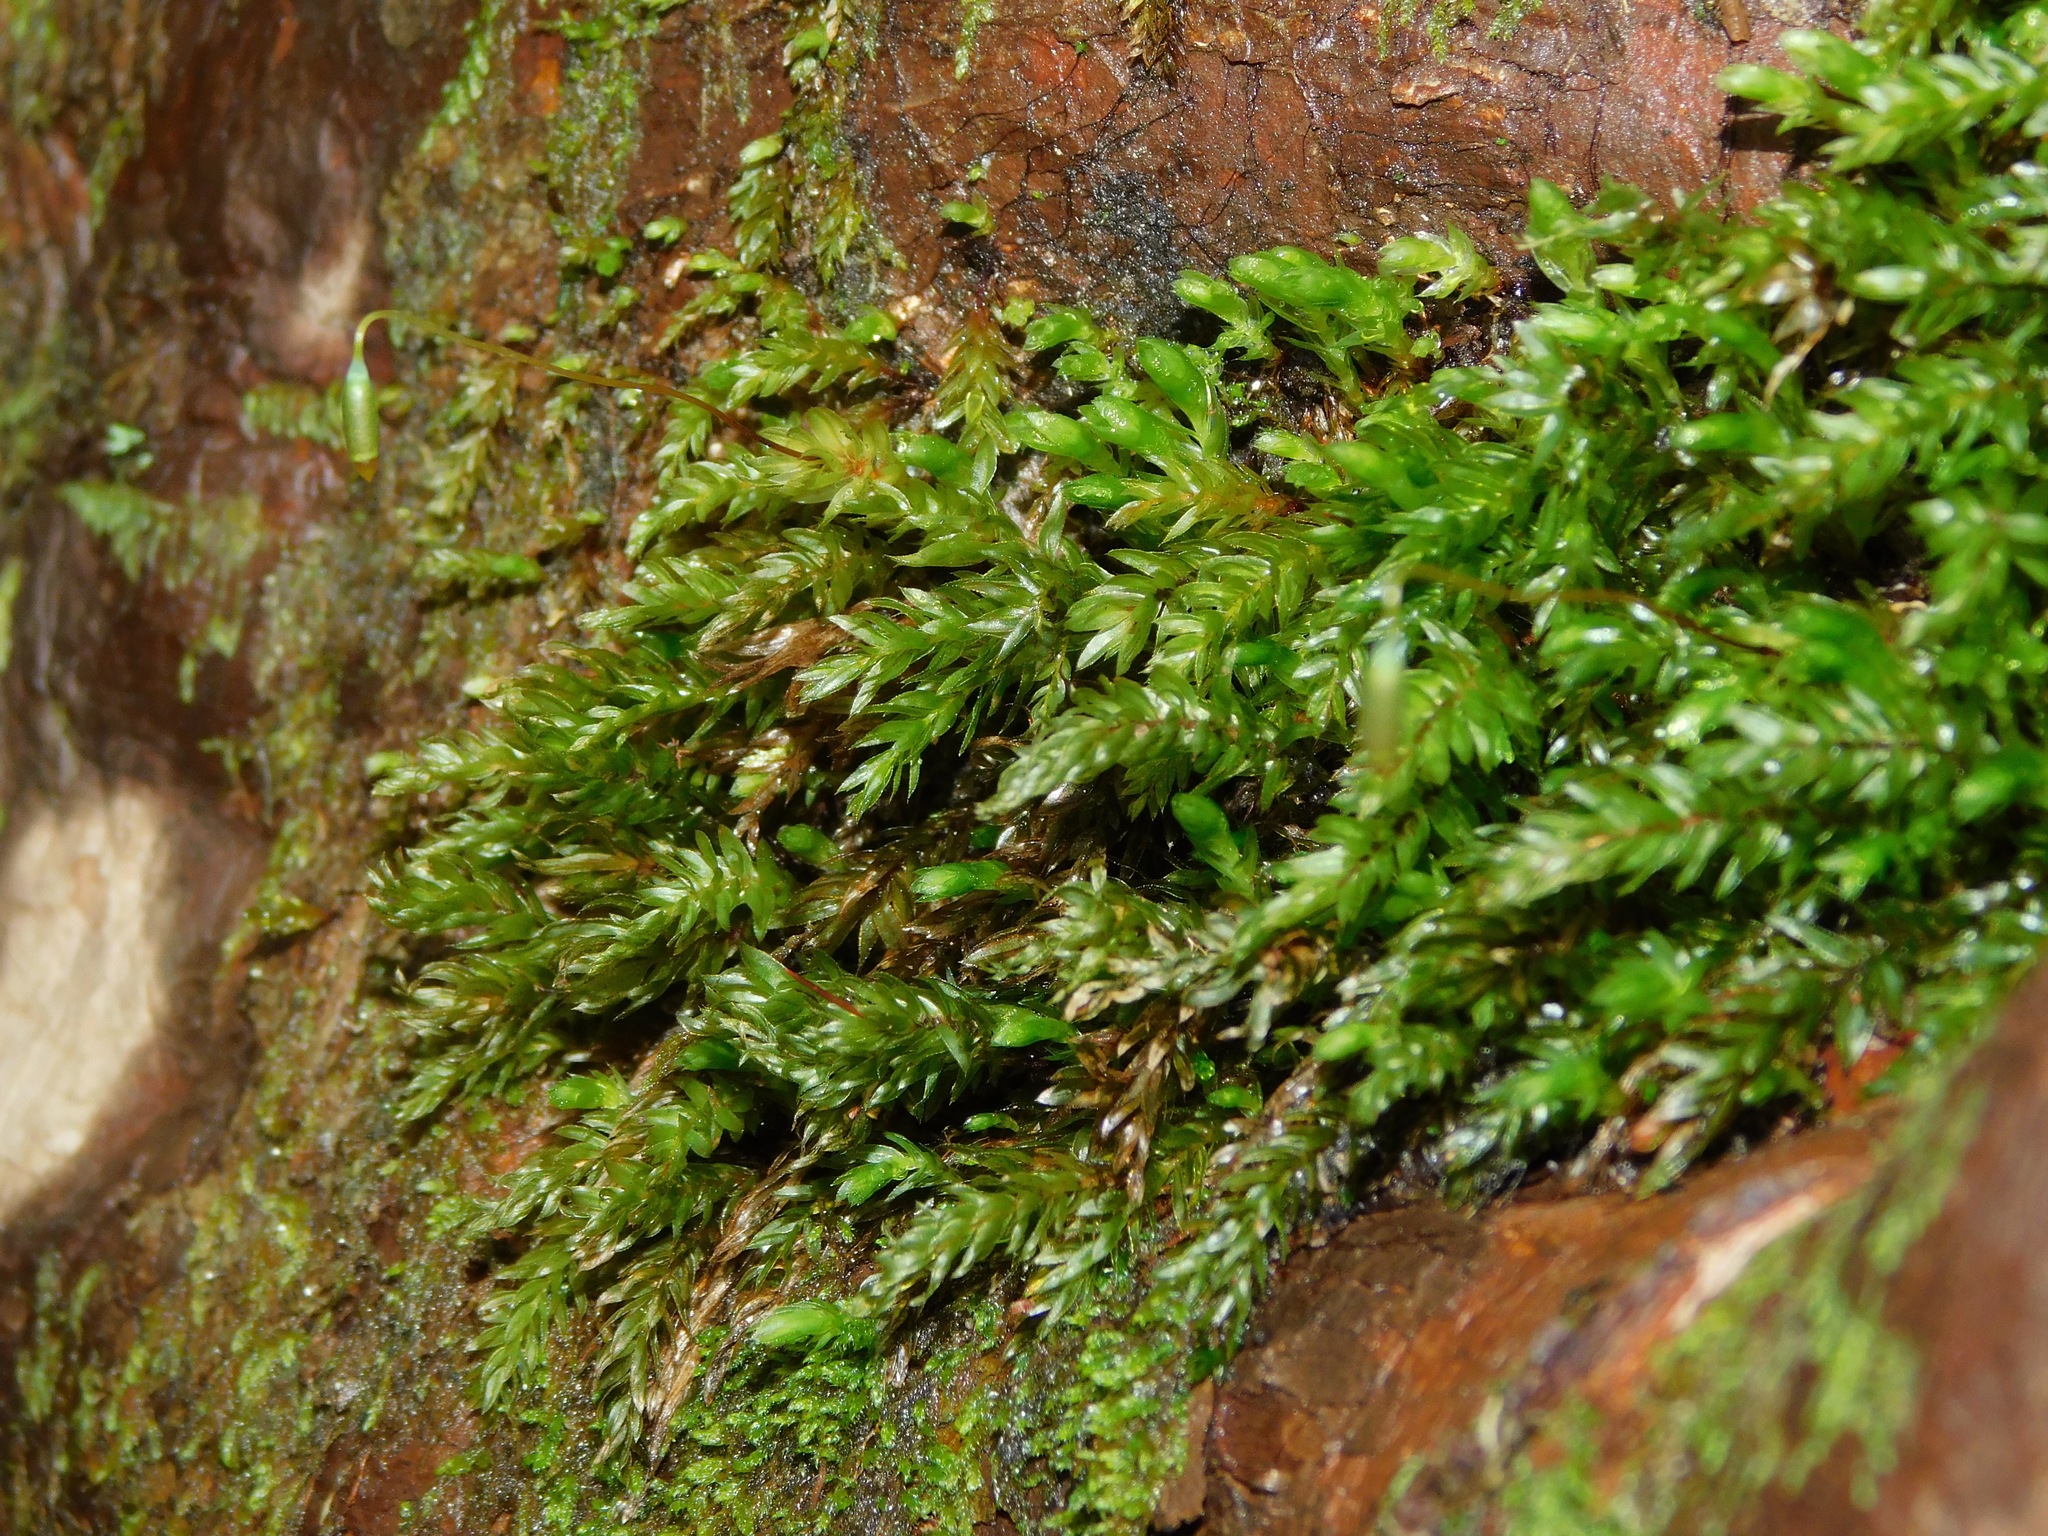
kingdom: Plantae
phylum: Bryophyta
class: Bryopsida
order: Bryales
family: Mniaceae
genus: Mnium
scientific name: Mnium hornum
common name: Swan's-neck leafy moss
